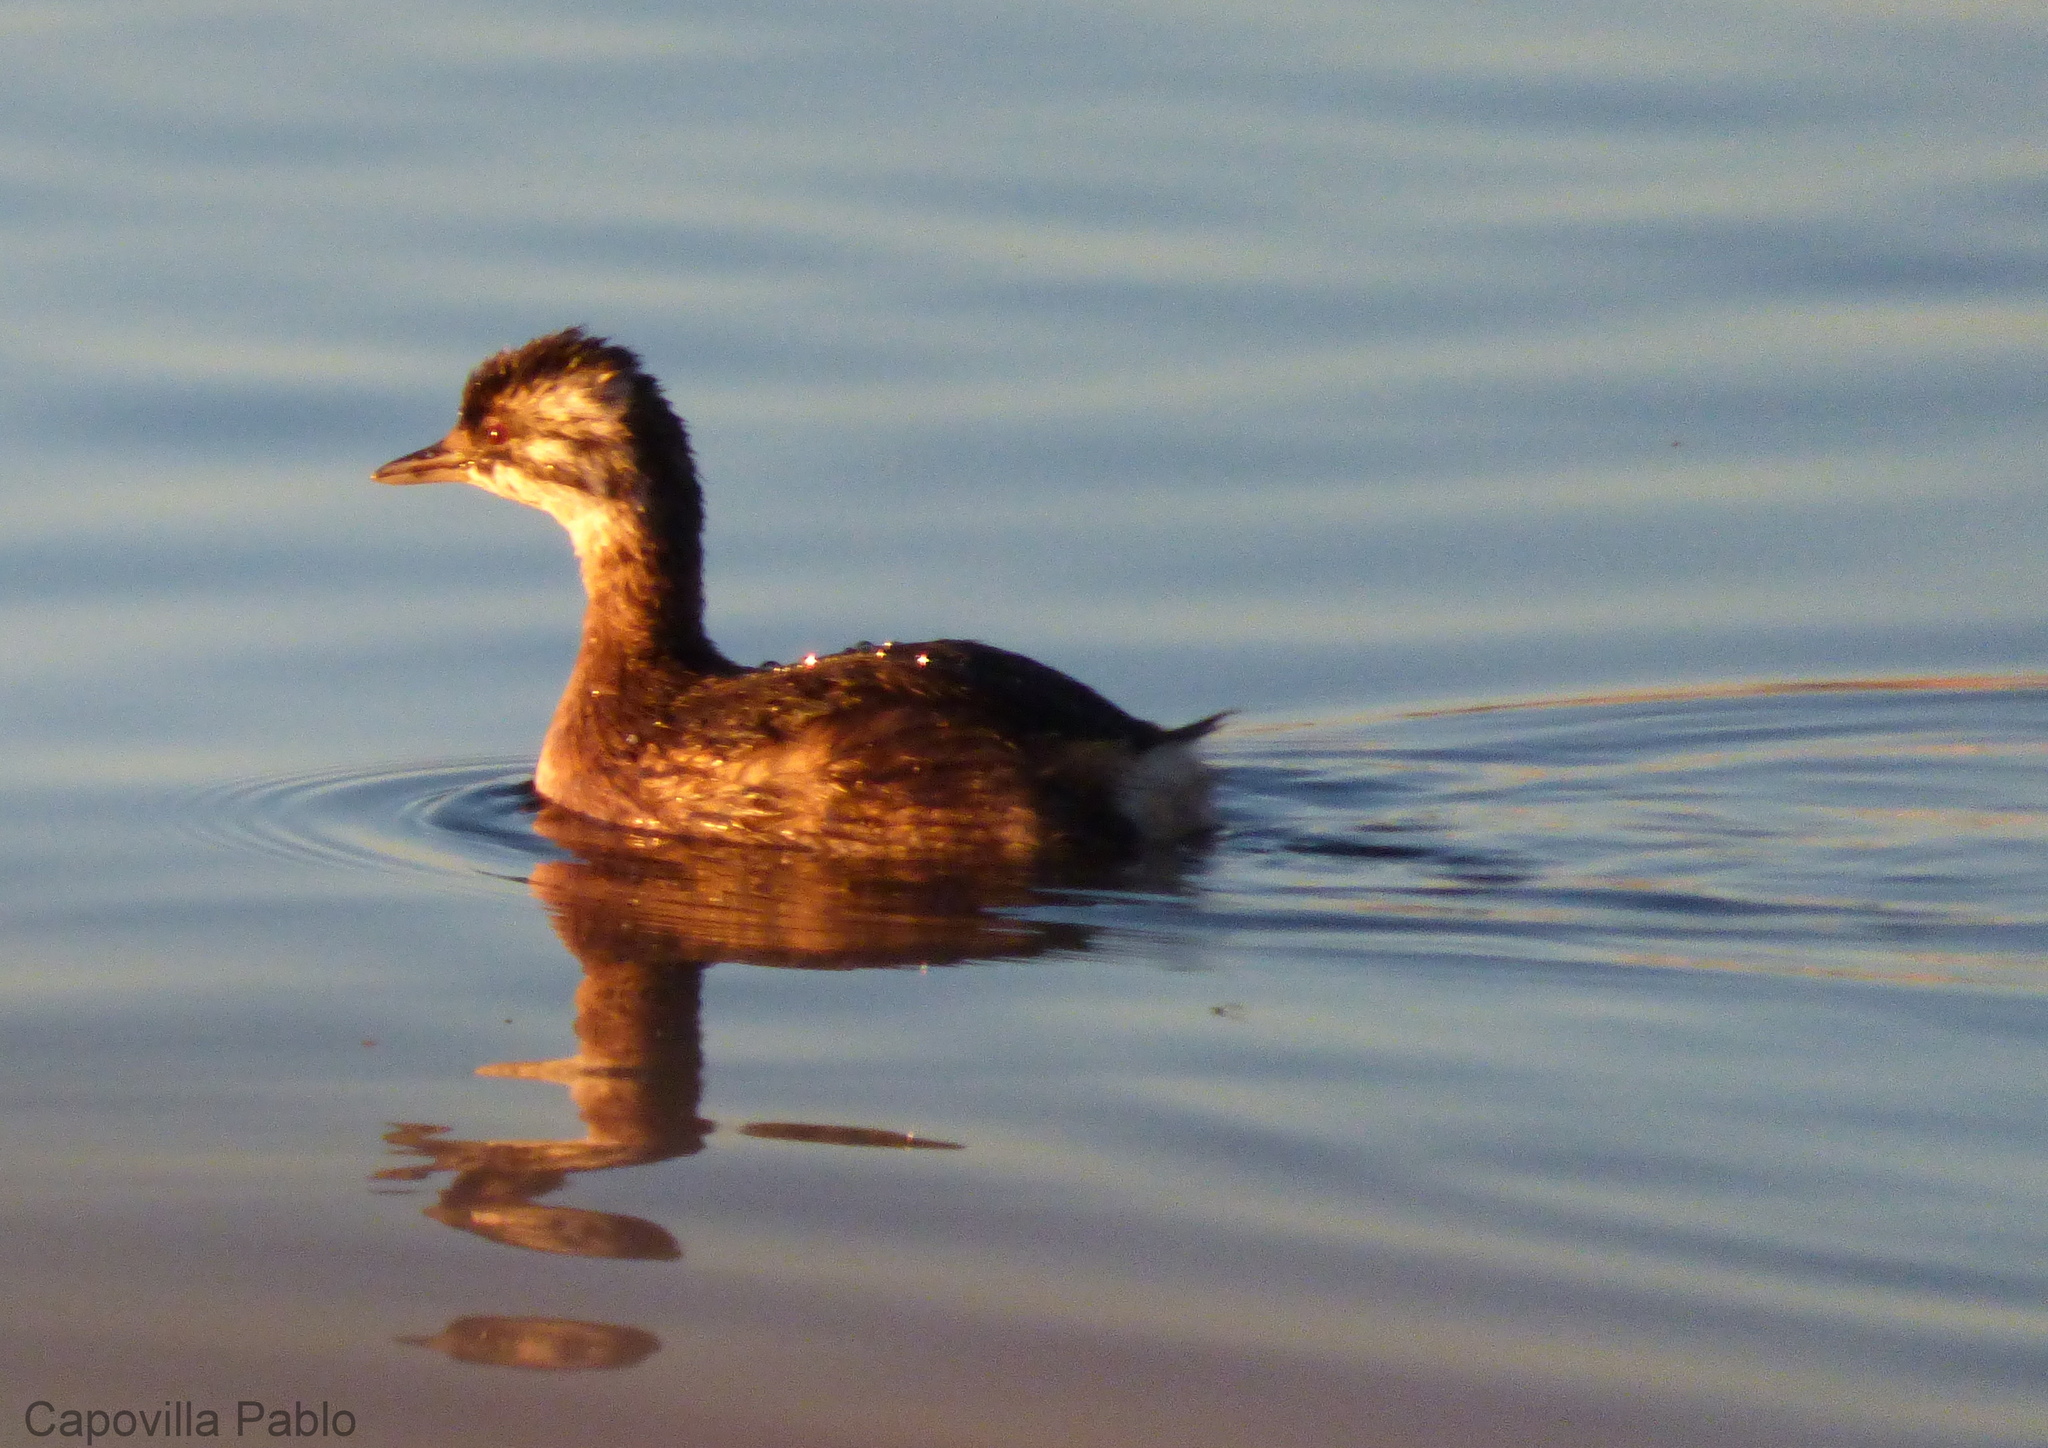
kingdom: Animalia
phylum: Chordata
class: Aves
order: Podicipediformes
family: Podicipedidae
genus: Rollandia
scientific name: Rollandia rolland
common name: White-tufted grebe
